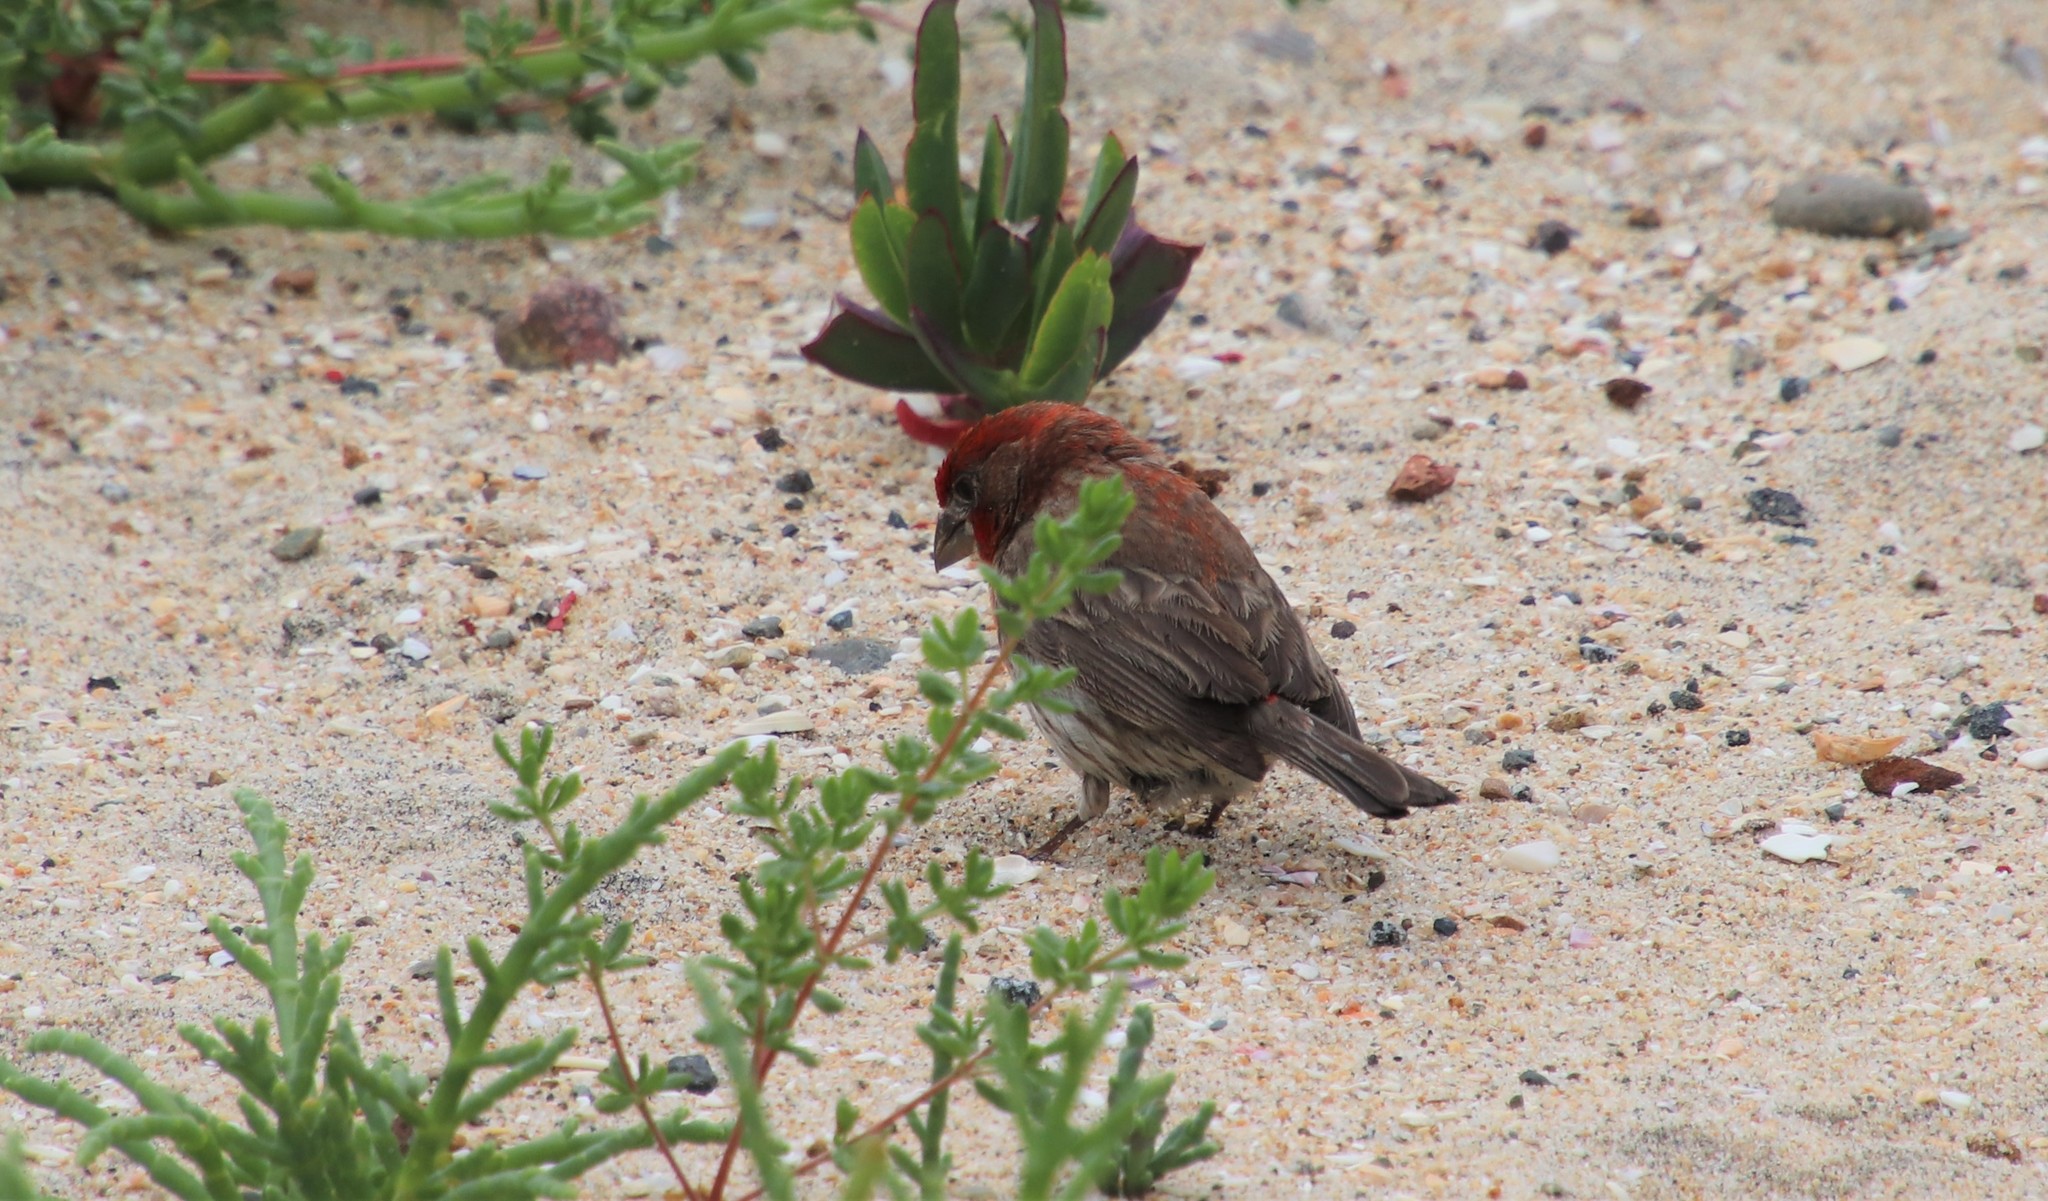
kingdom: Animalia
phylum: Chordata
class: Aves
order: Passeriformes
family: Fringillidae
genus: Haemorhous
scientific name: Haemorhous mexicanus
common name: House finch
